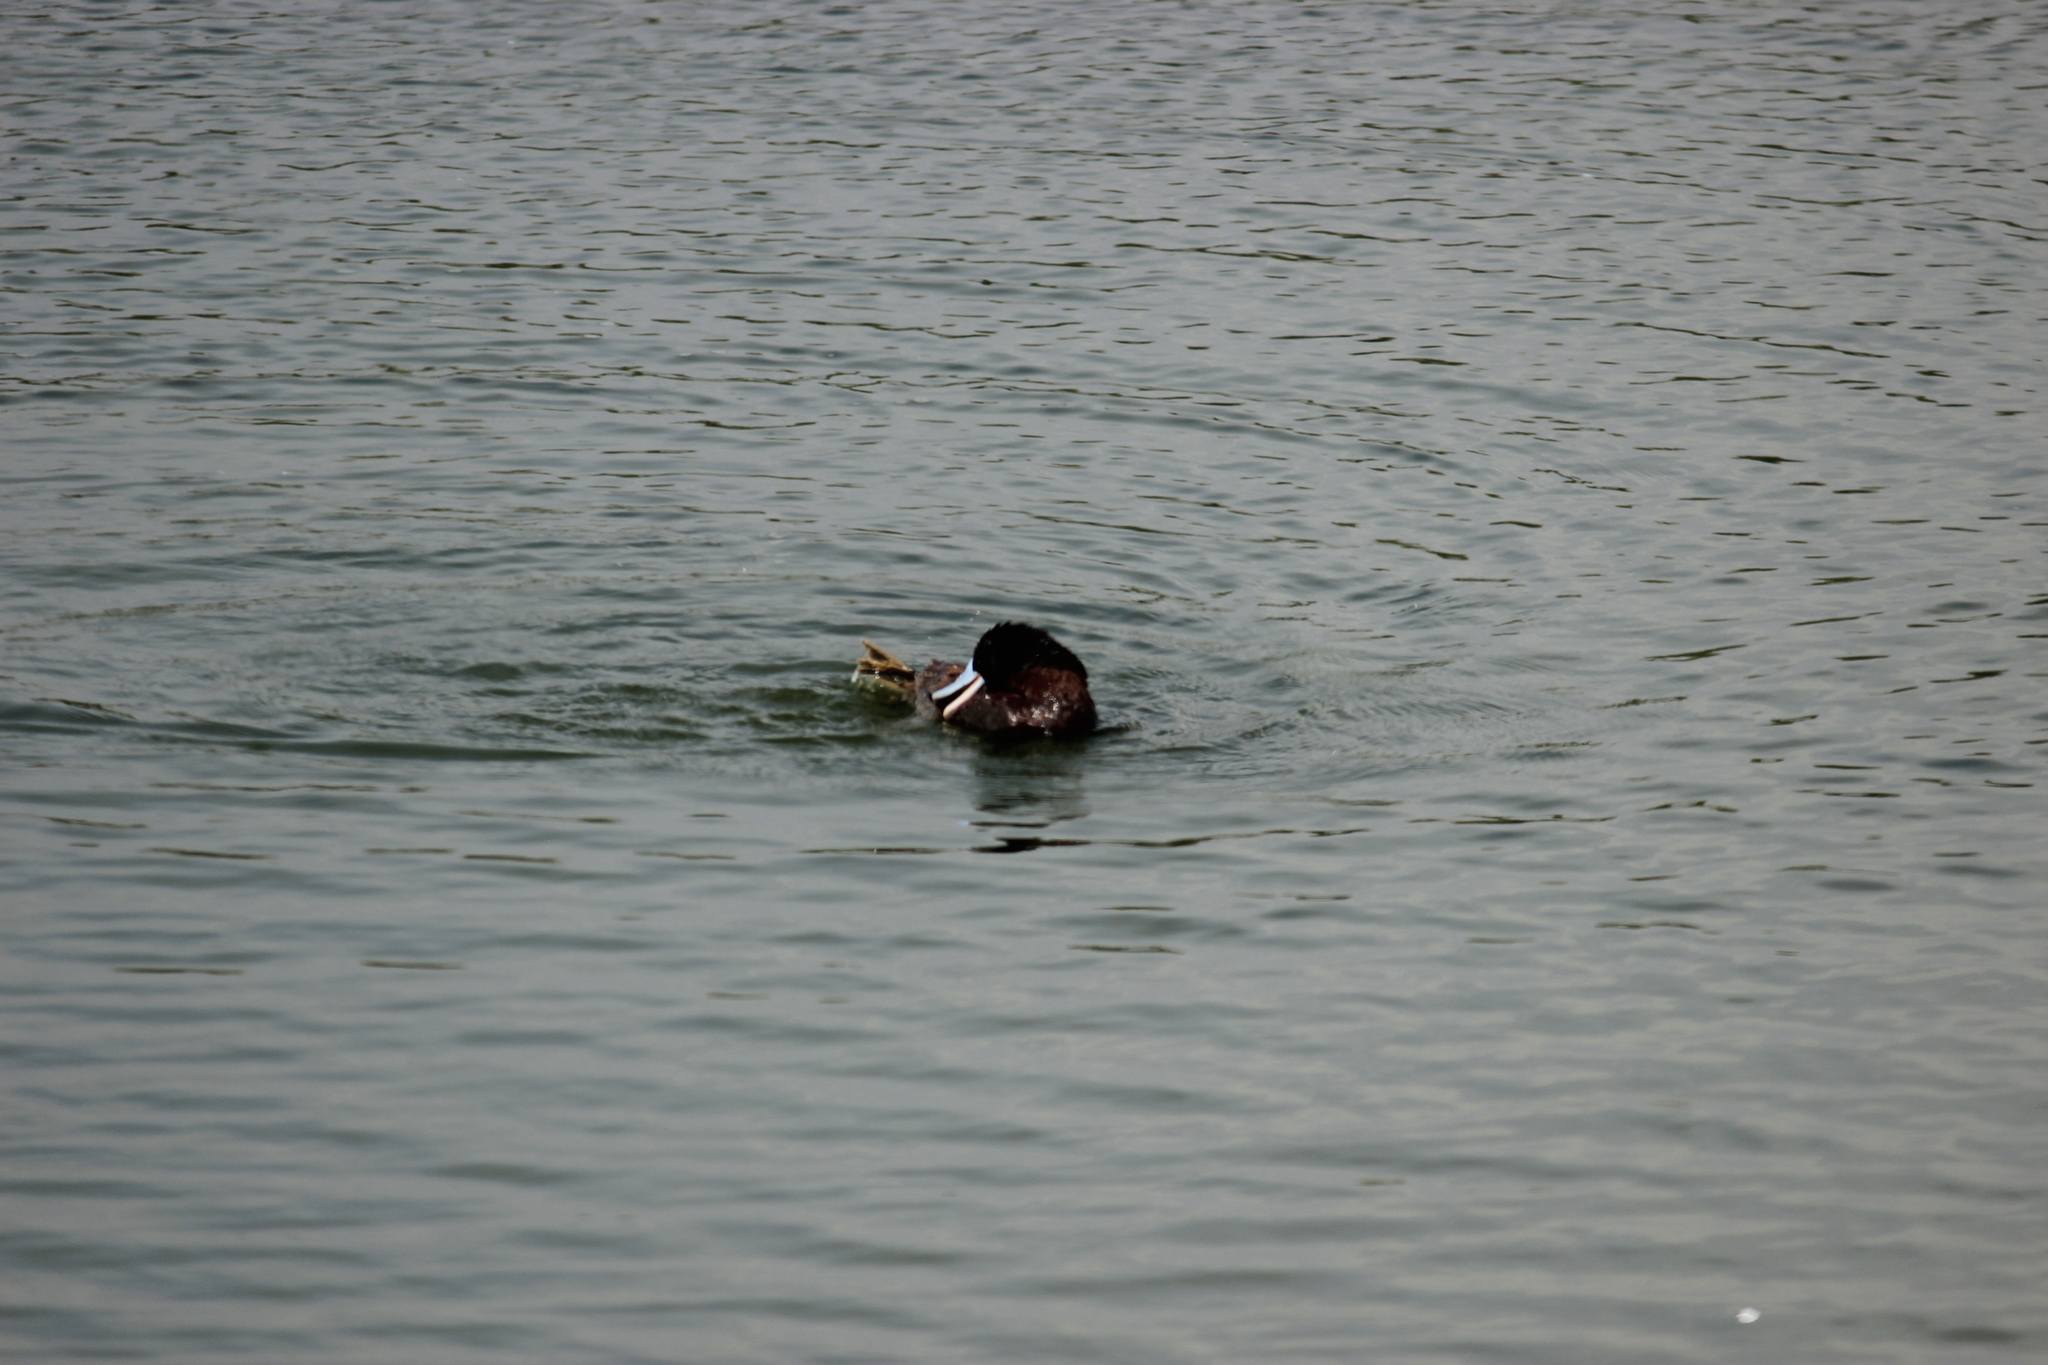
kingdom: Animalia
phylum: Chordata
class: Aves
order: Anseriformes
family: Anatidae
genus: Oxyura
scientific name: Oxyura ferruginea
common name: Andean duck
